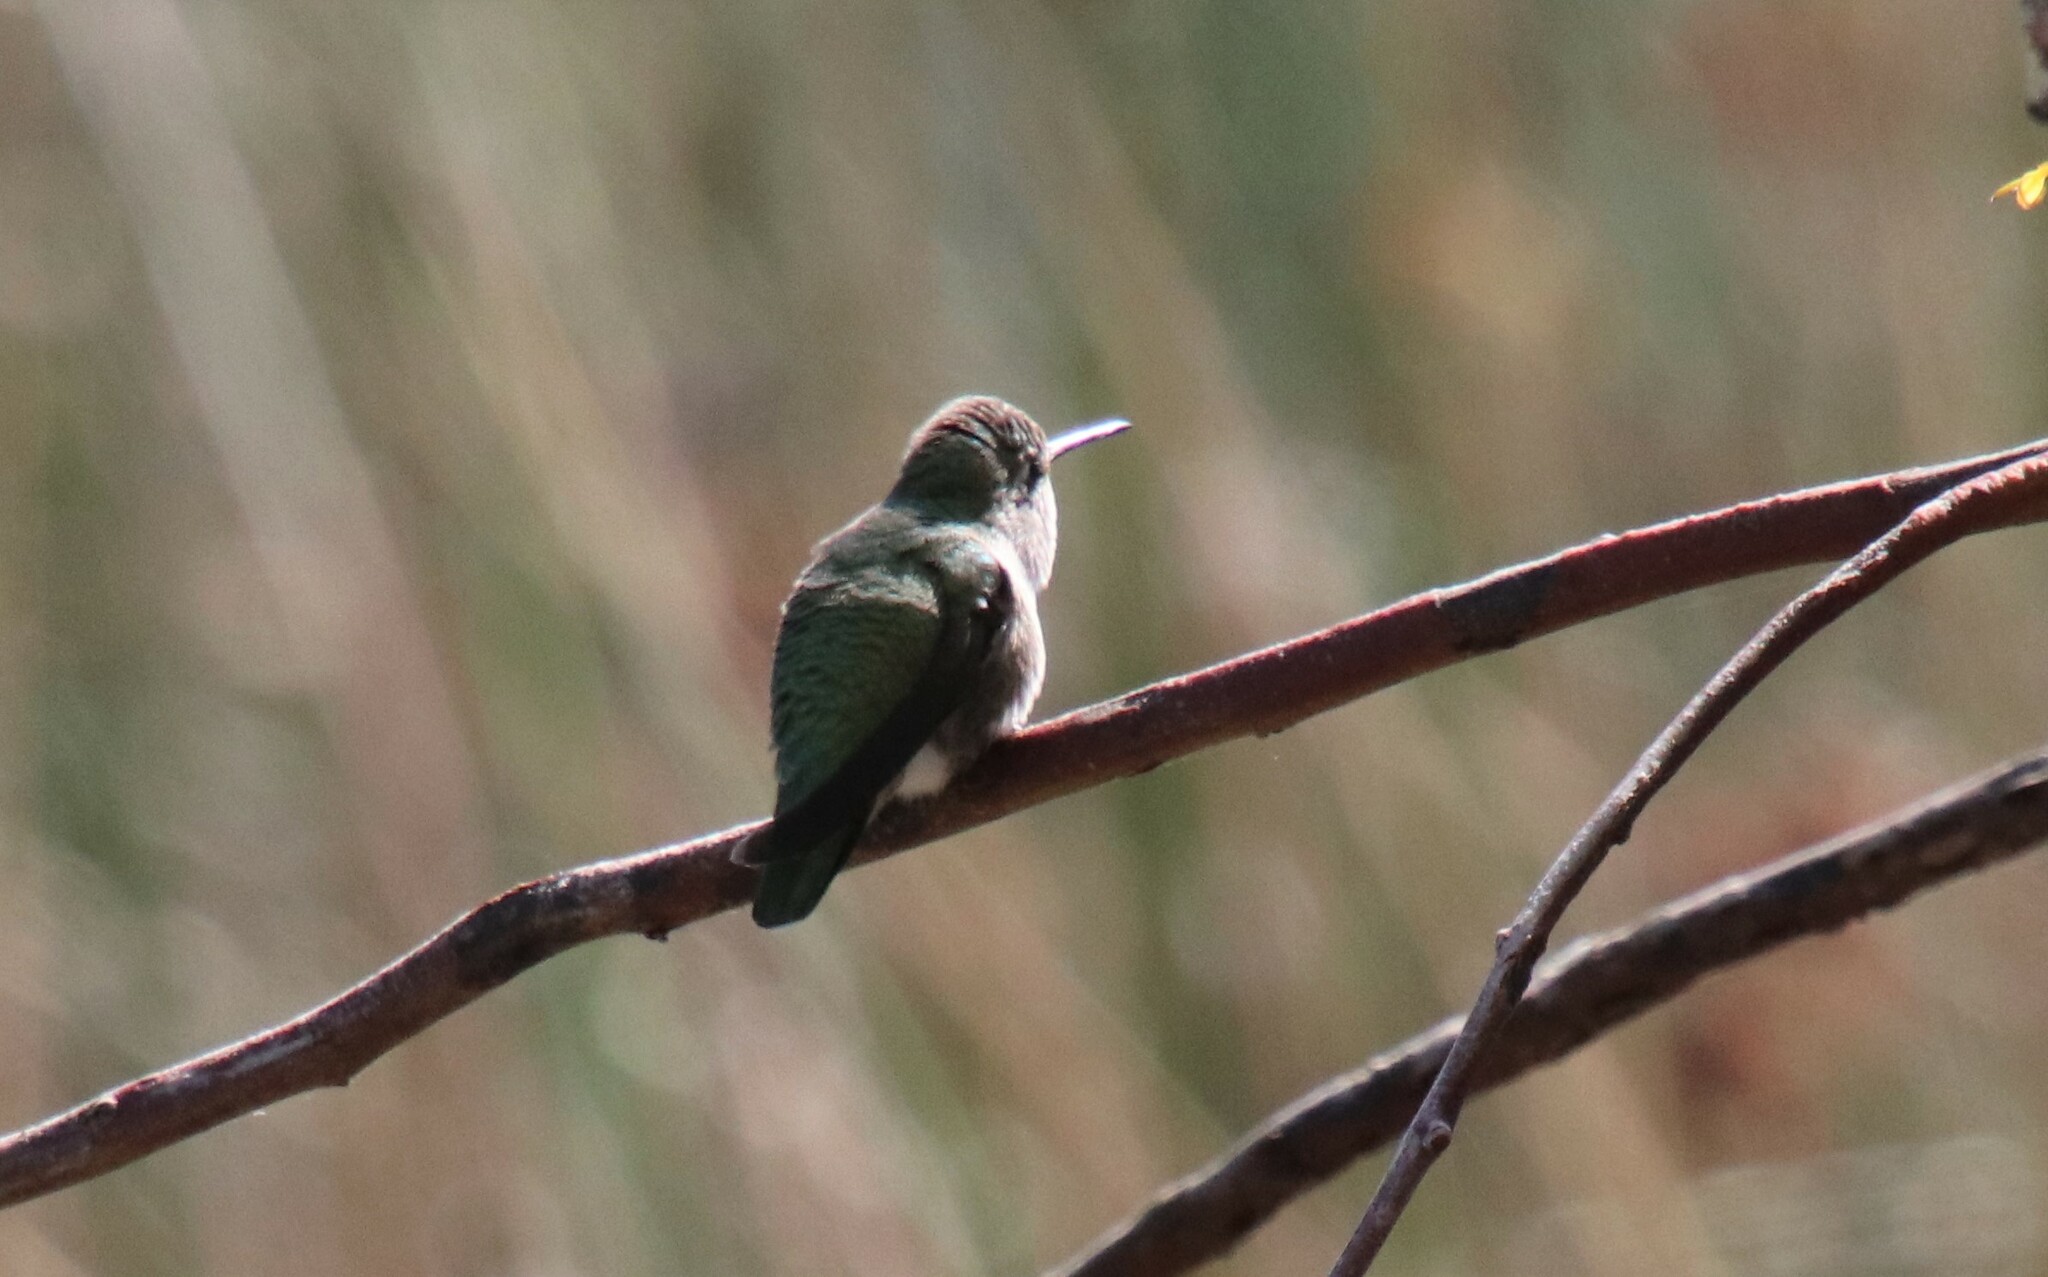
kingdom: Animalia
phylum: Chordata
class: Aves
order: Apodiformes
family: Trochilidae
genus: Calypte
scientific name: Calypte anna
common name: Anna's hummingbird
